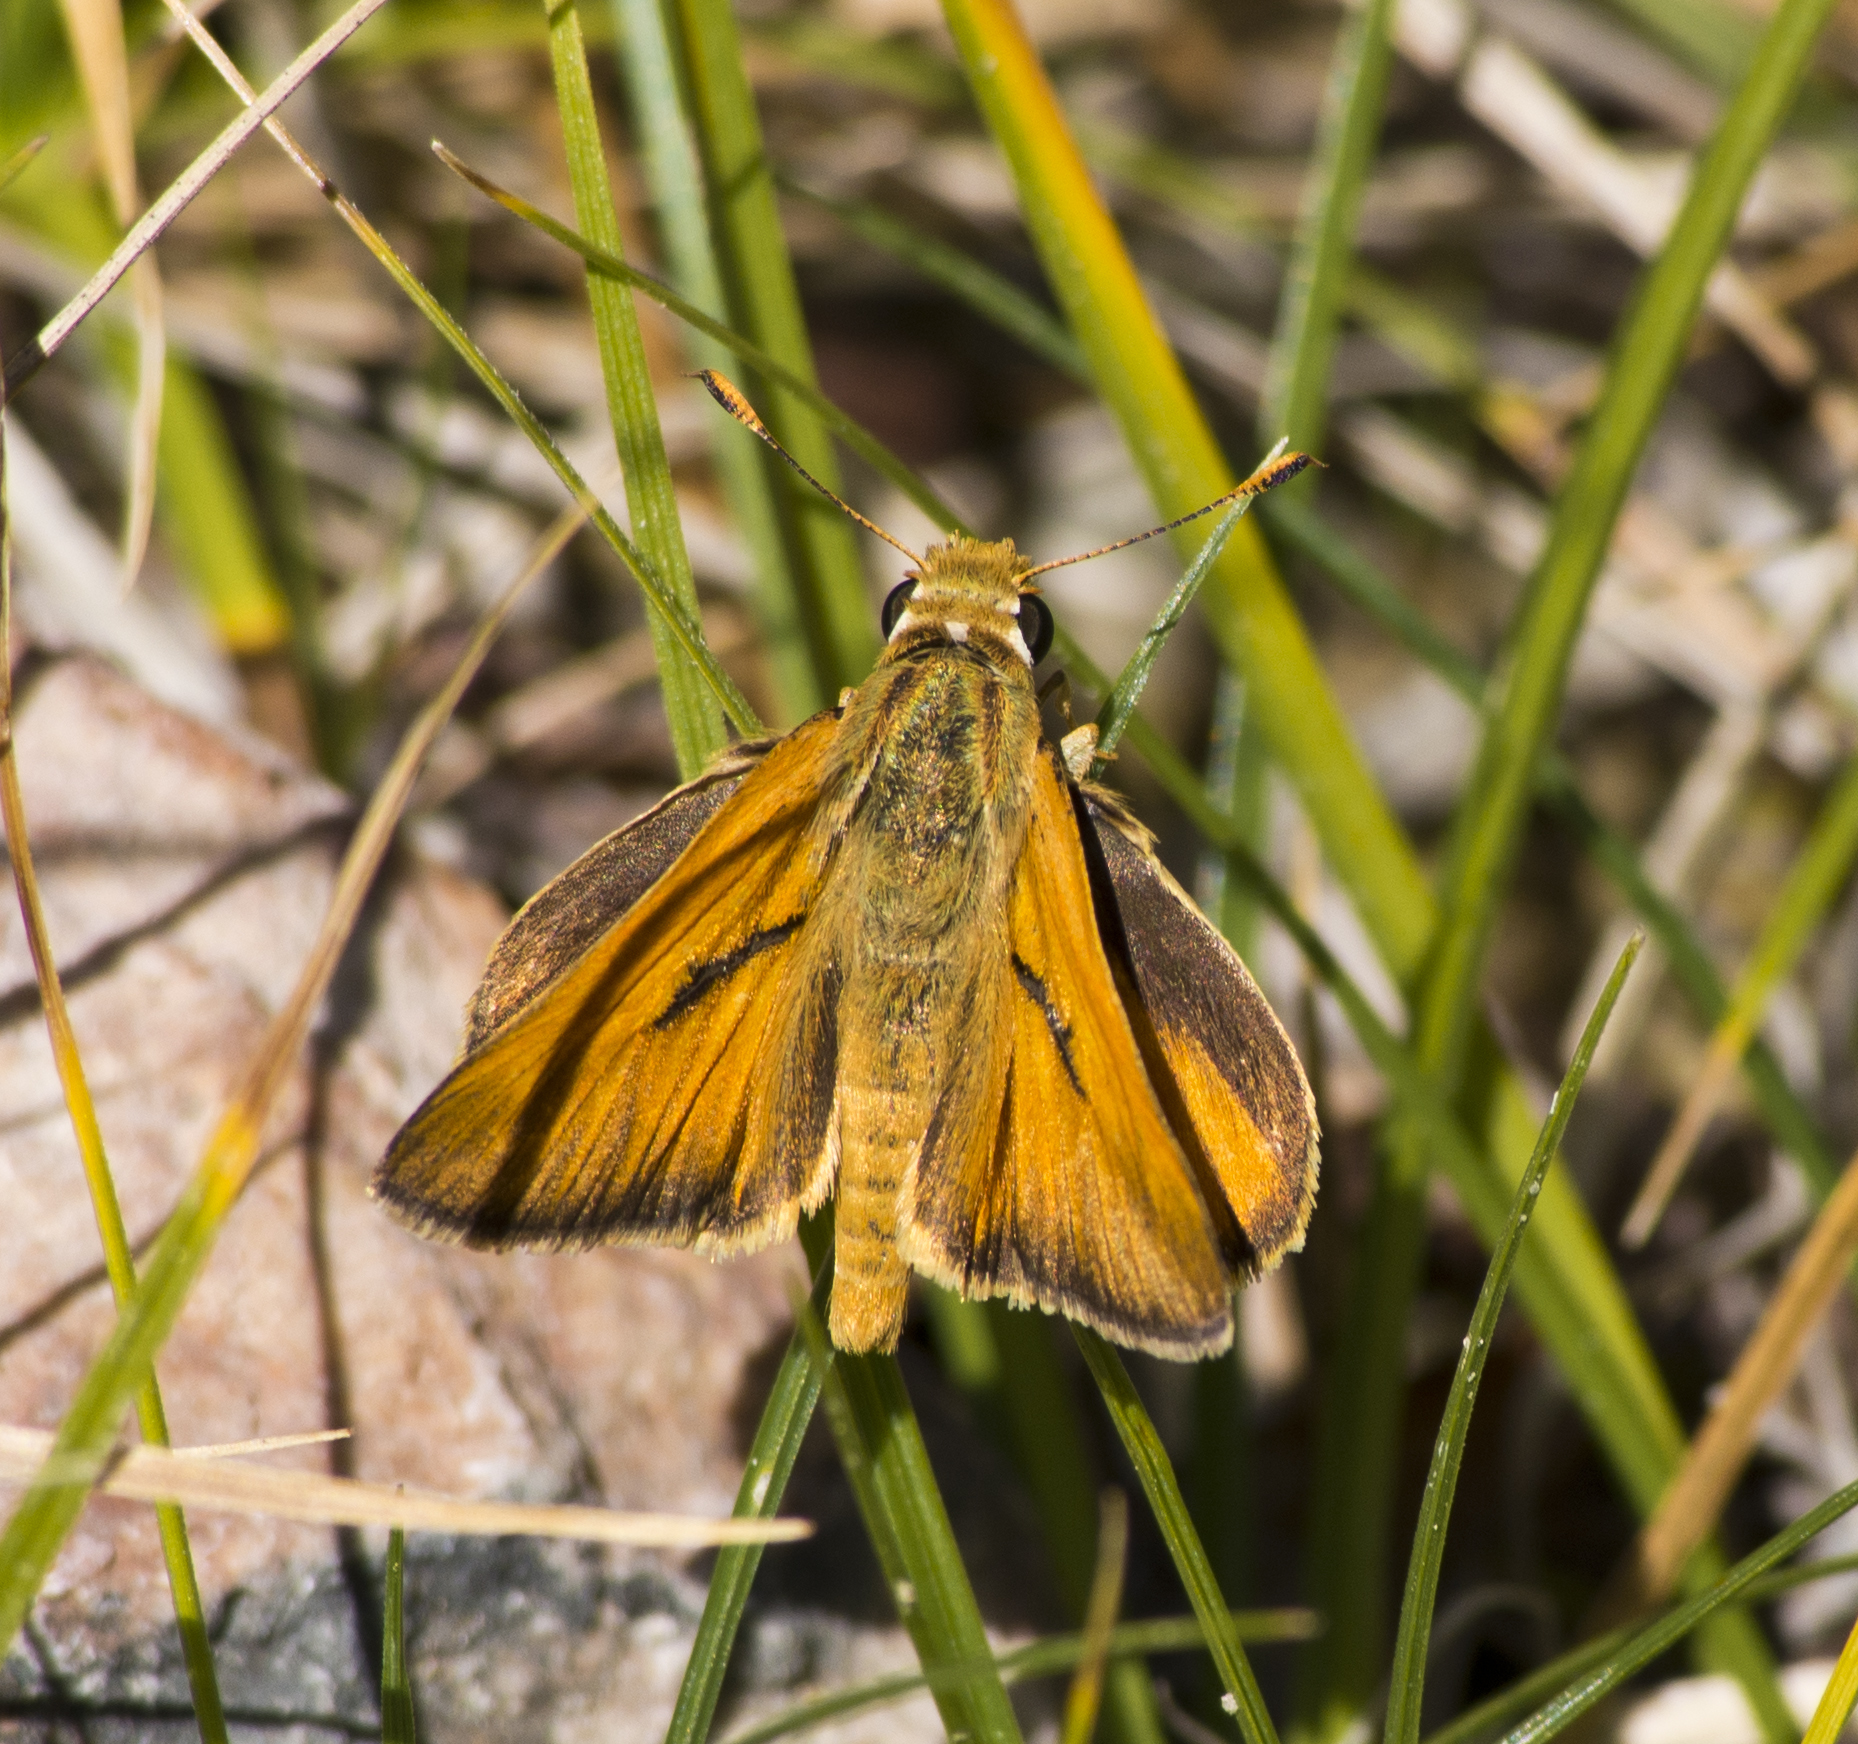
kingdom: Animalia
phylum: Arthropoda
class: Insecta
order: Lepidoptera
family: Hesperiidae
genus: Ochlodes
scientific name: Ochlodes sylvanoides
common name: Woodland skipper
